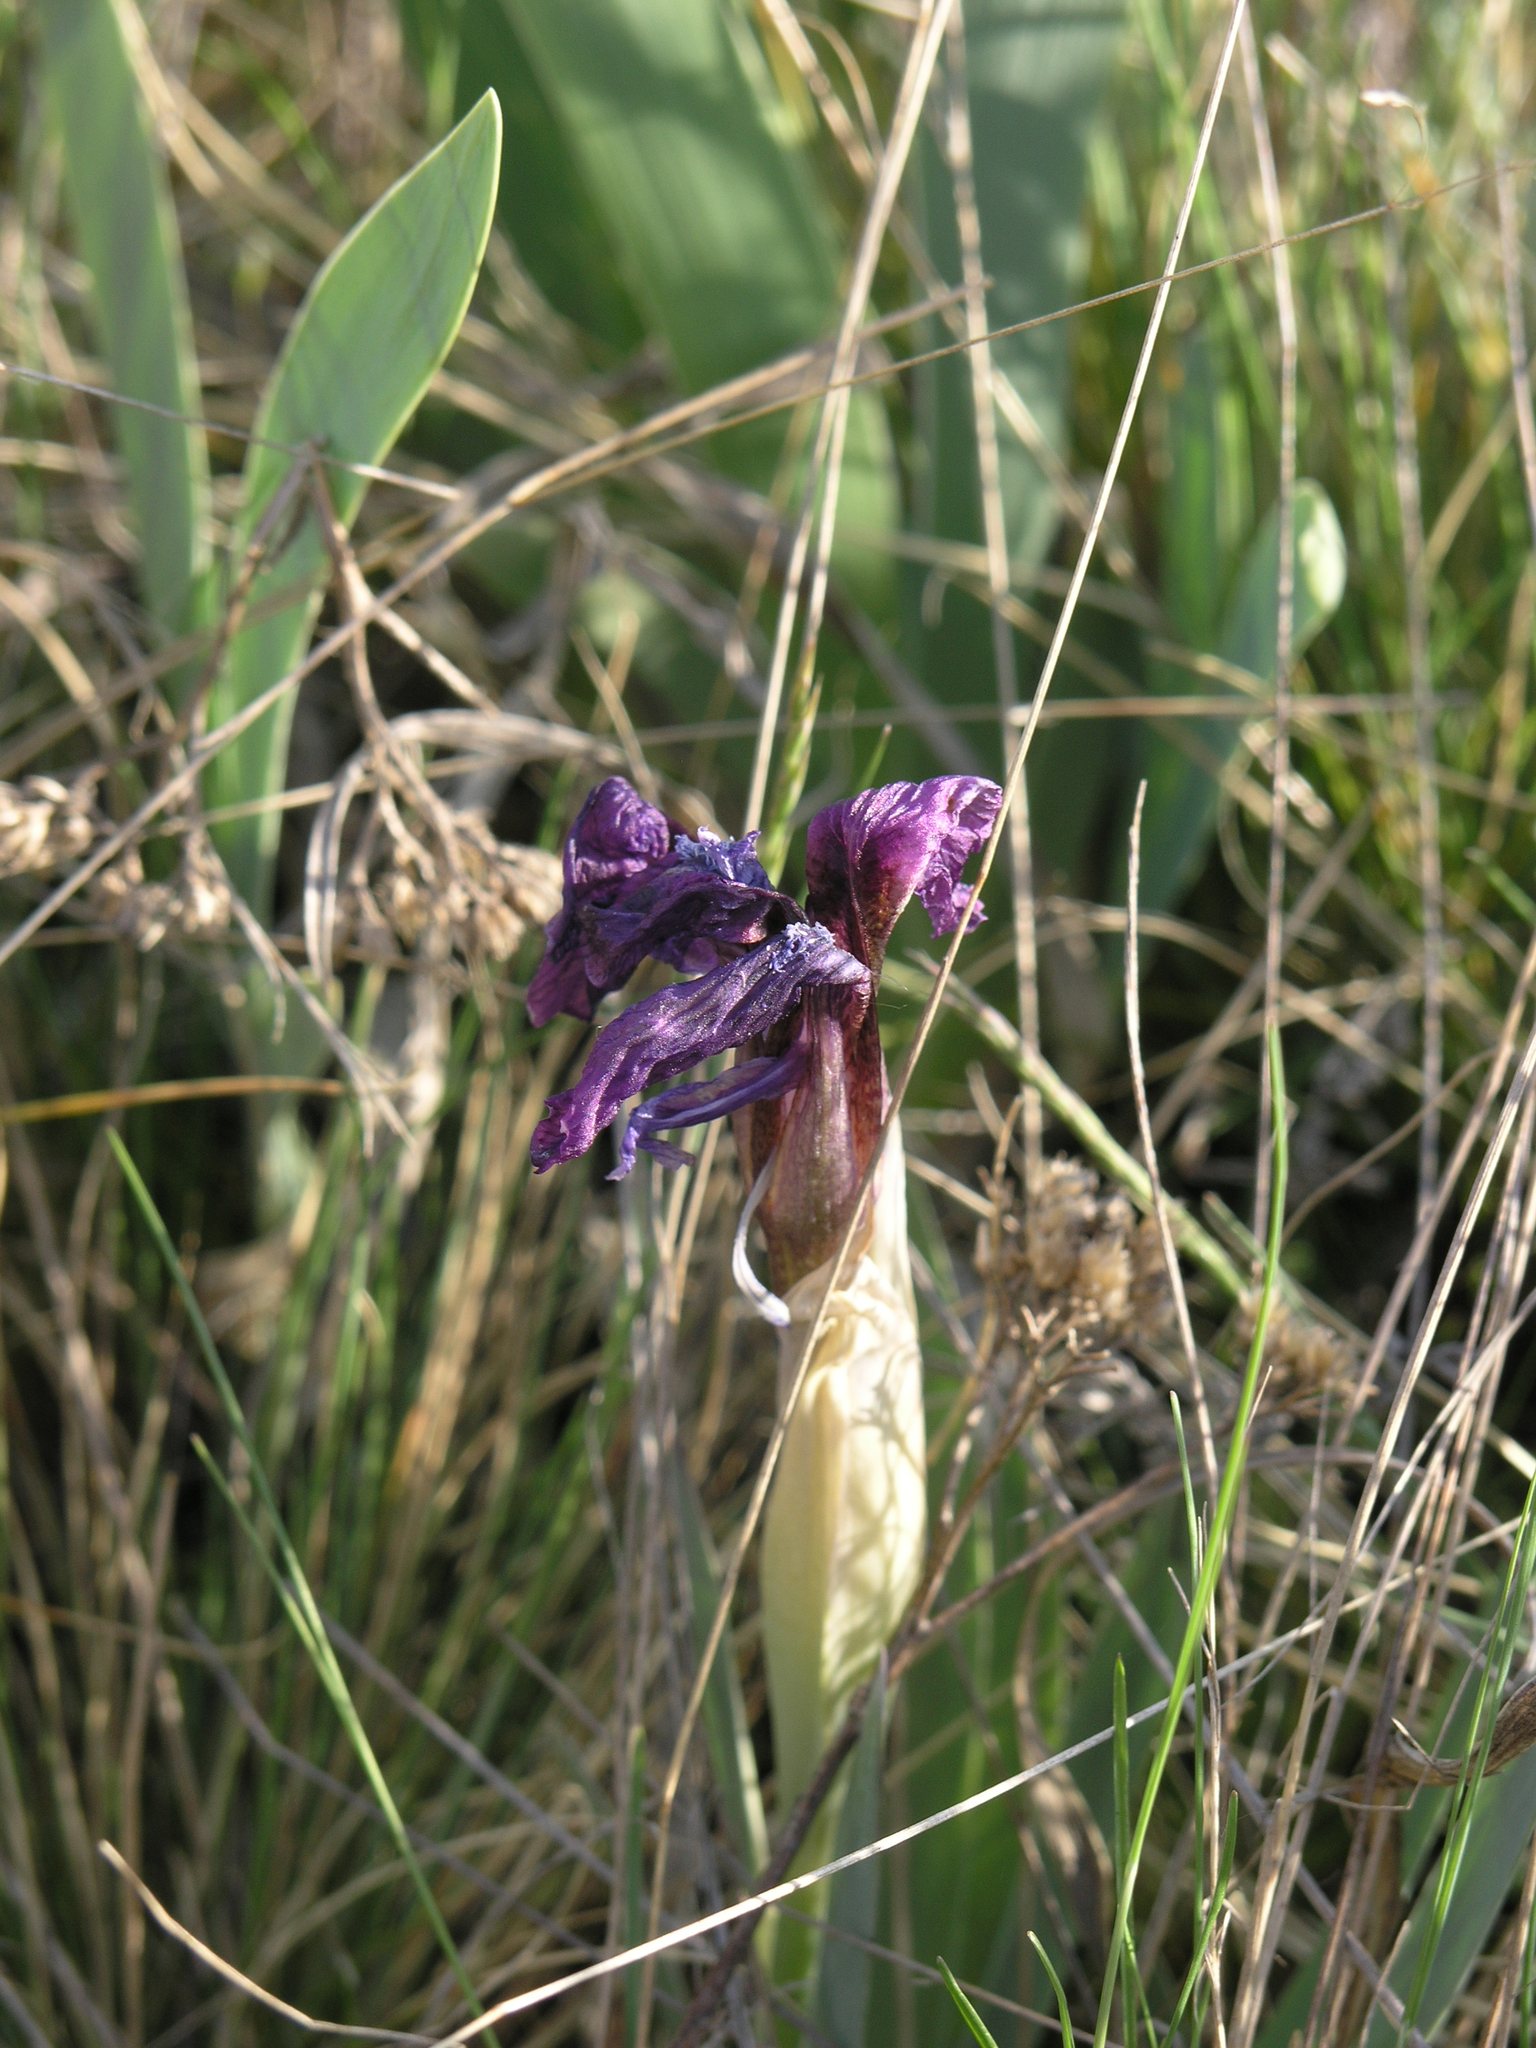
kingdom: Plantae
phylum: Tracheophyta
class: Liliopsida
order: Asparagales
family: Iridaceae
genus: Iris
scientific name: Iris glaucescens
